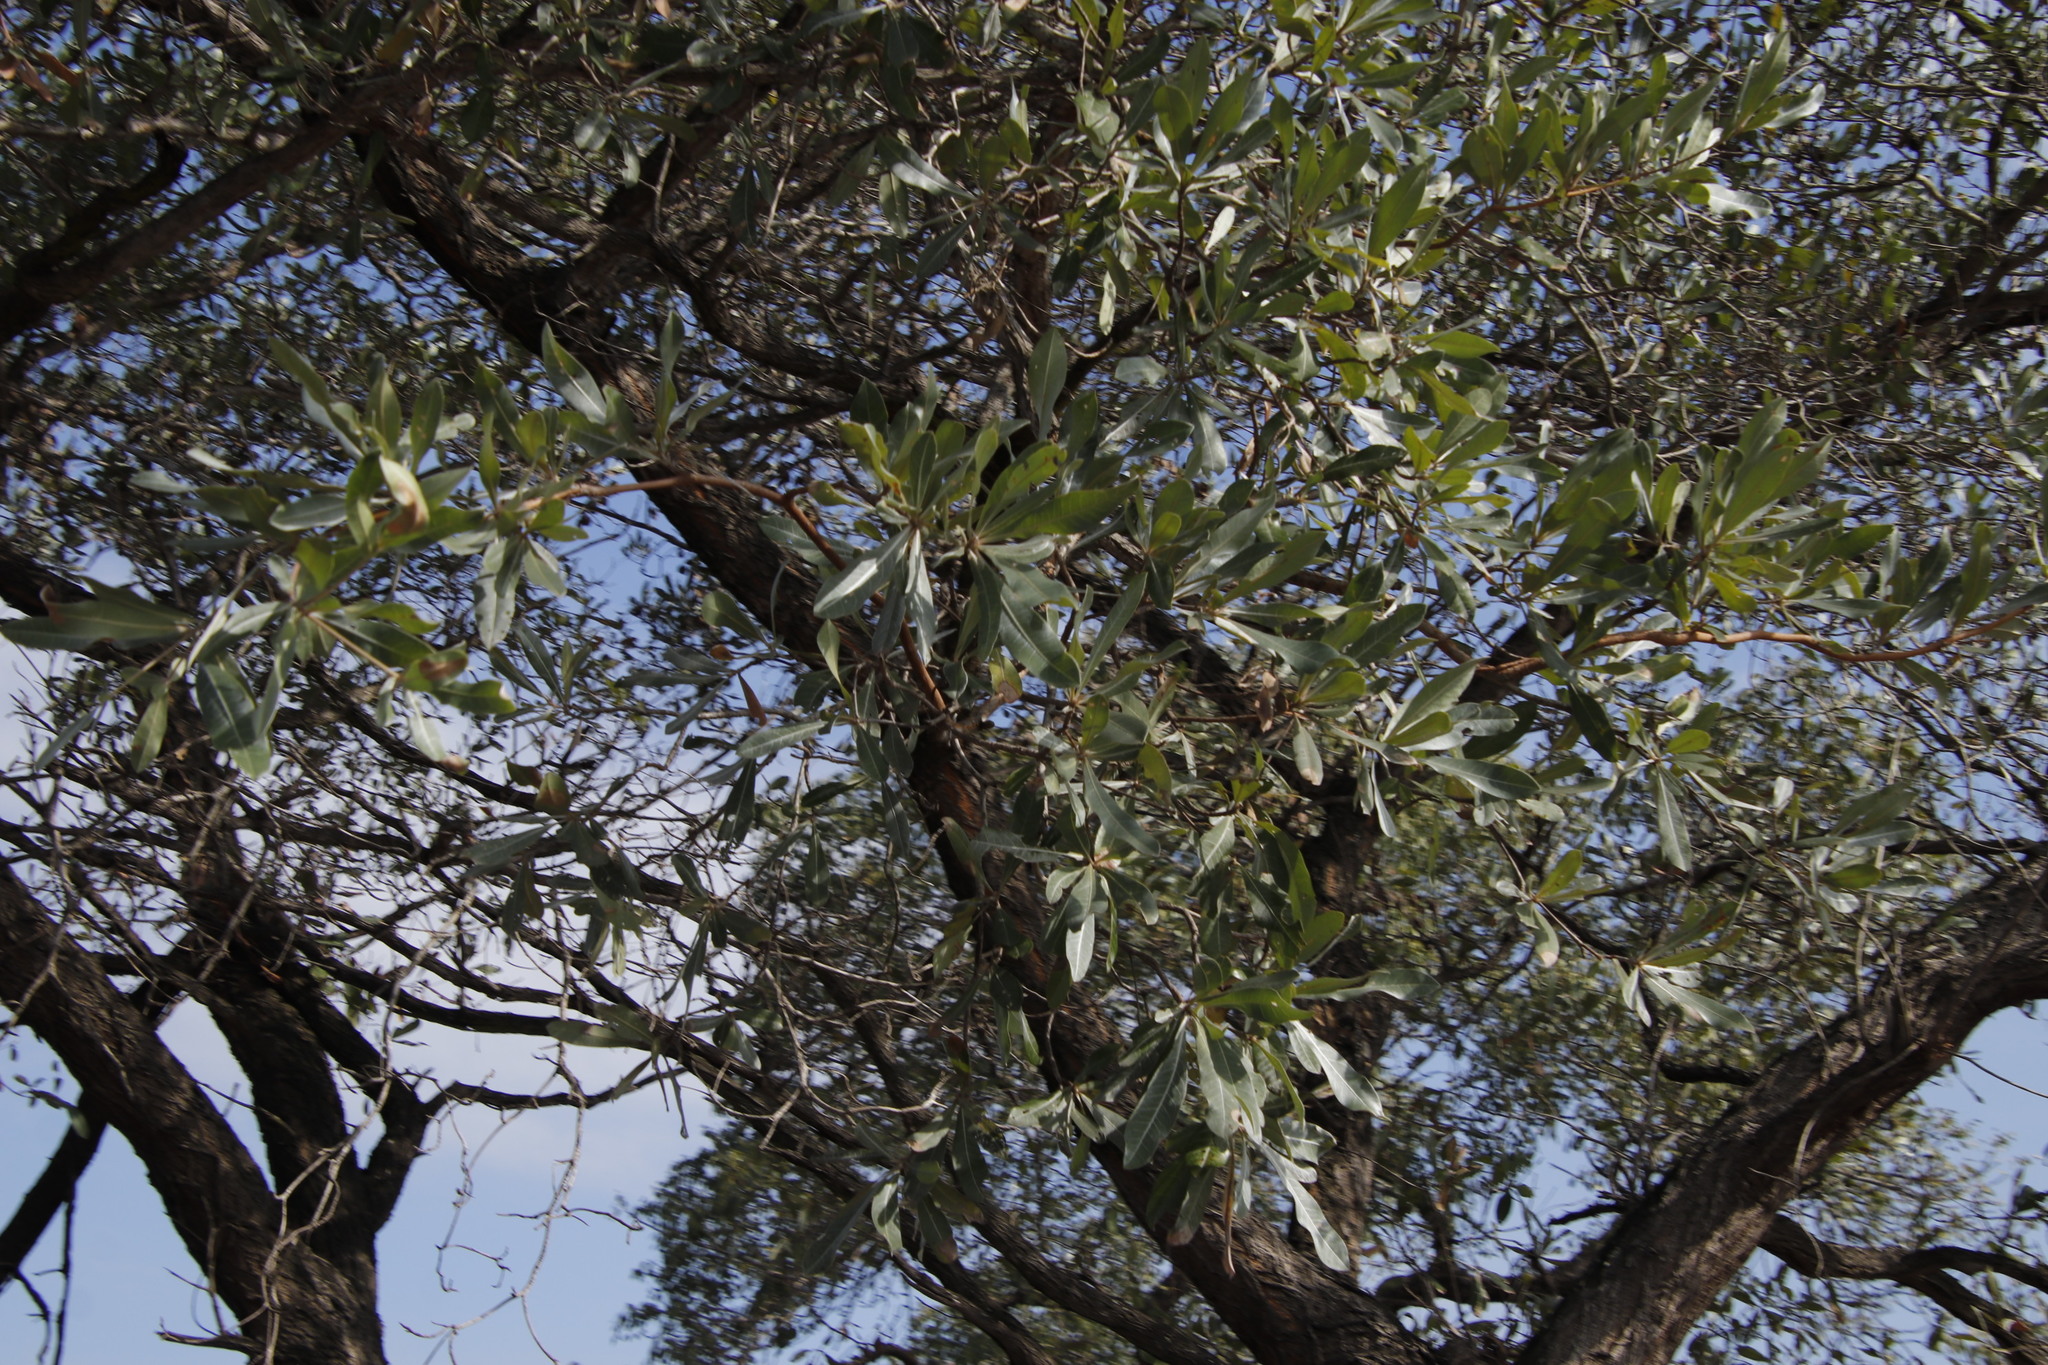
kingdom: Plantae
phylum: Tracheophyta
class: Magnoliopsida
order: Myrtales
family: Combretaceae
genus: Terminalia
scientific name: Terminalia sericea
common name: Clusterleaf
